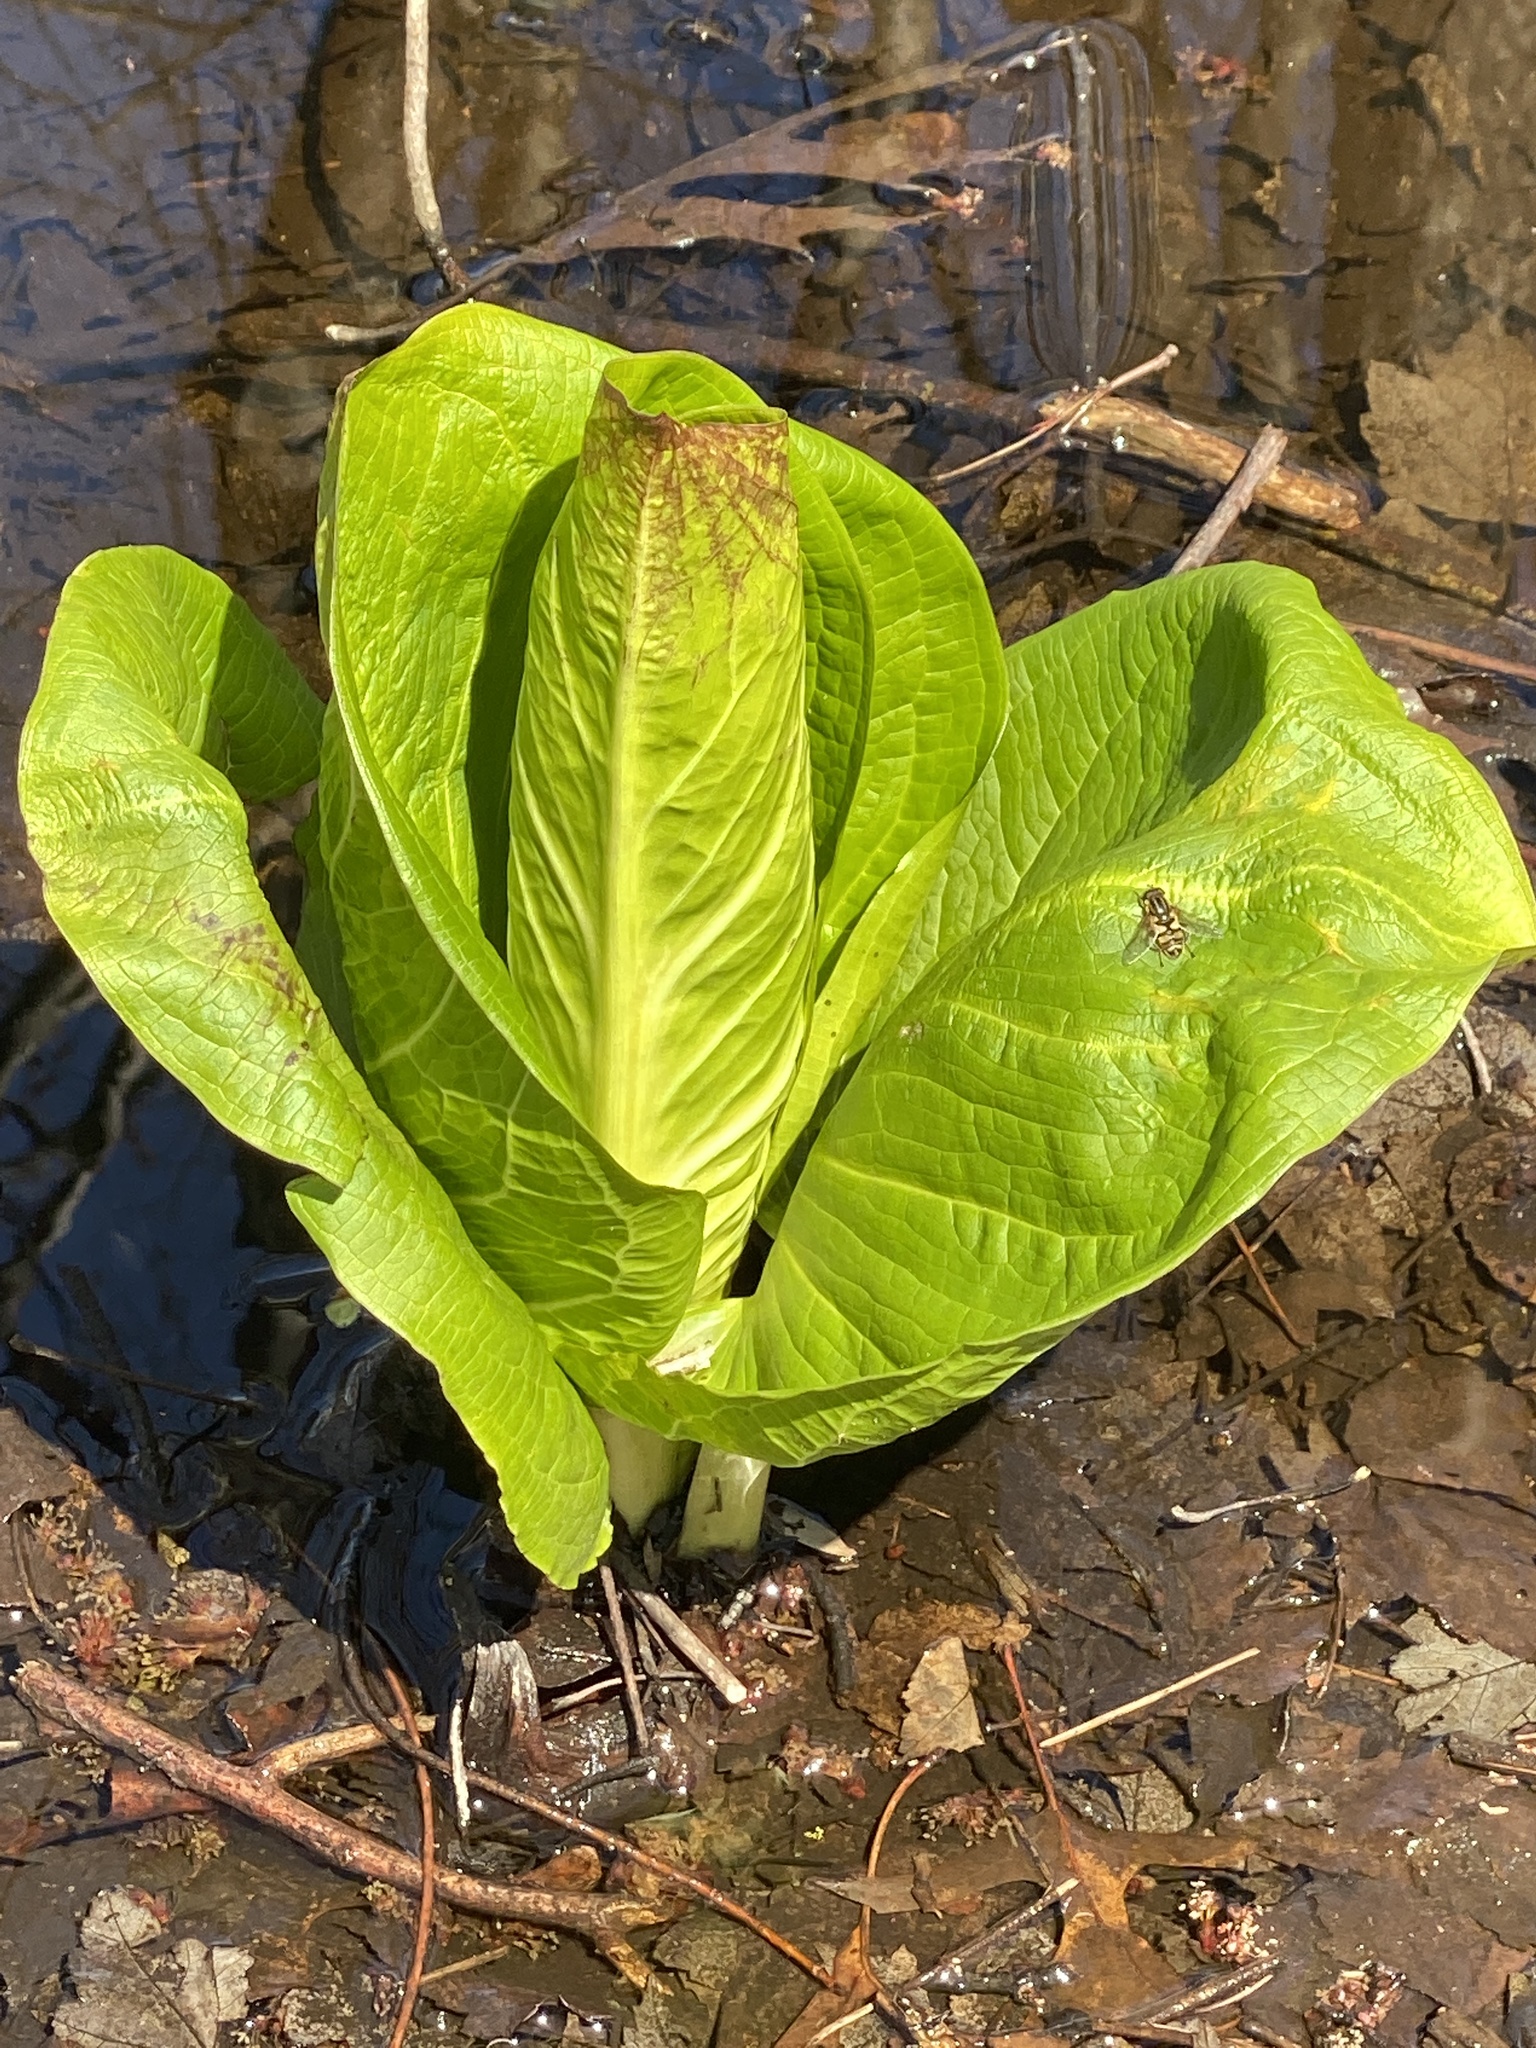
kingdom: Plantae
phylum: Tracheophyta
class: Liliopsida
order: Alismatales
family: Araceae
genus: Symplocarpus
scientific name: Symplocarpus foetidus
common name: Eastern skunk cabbage
